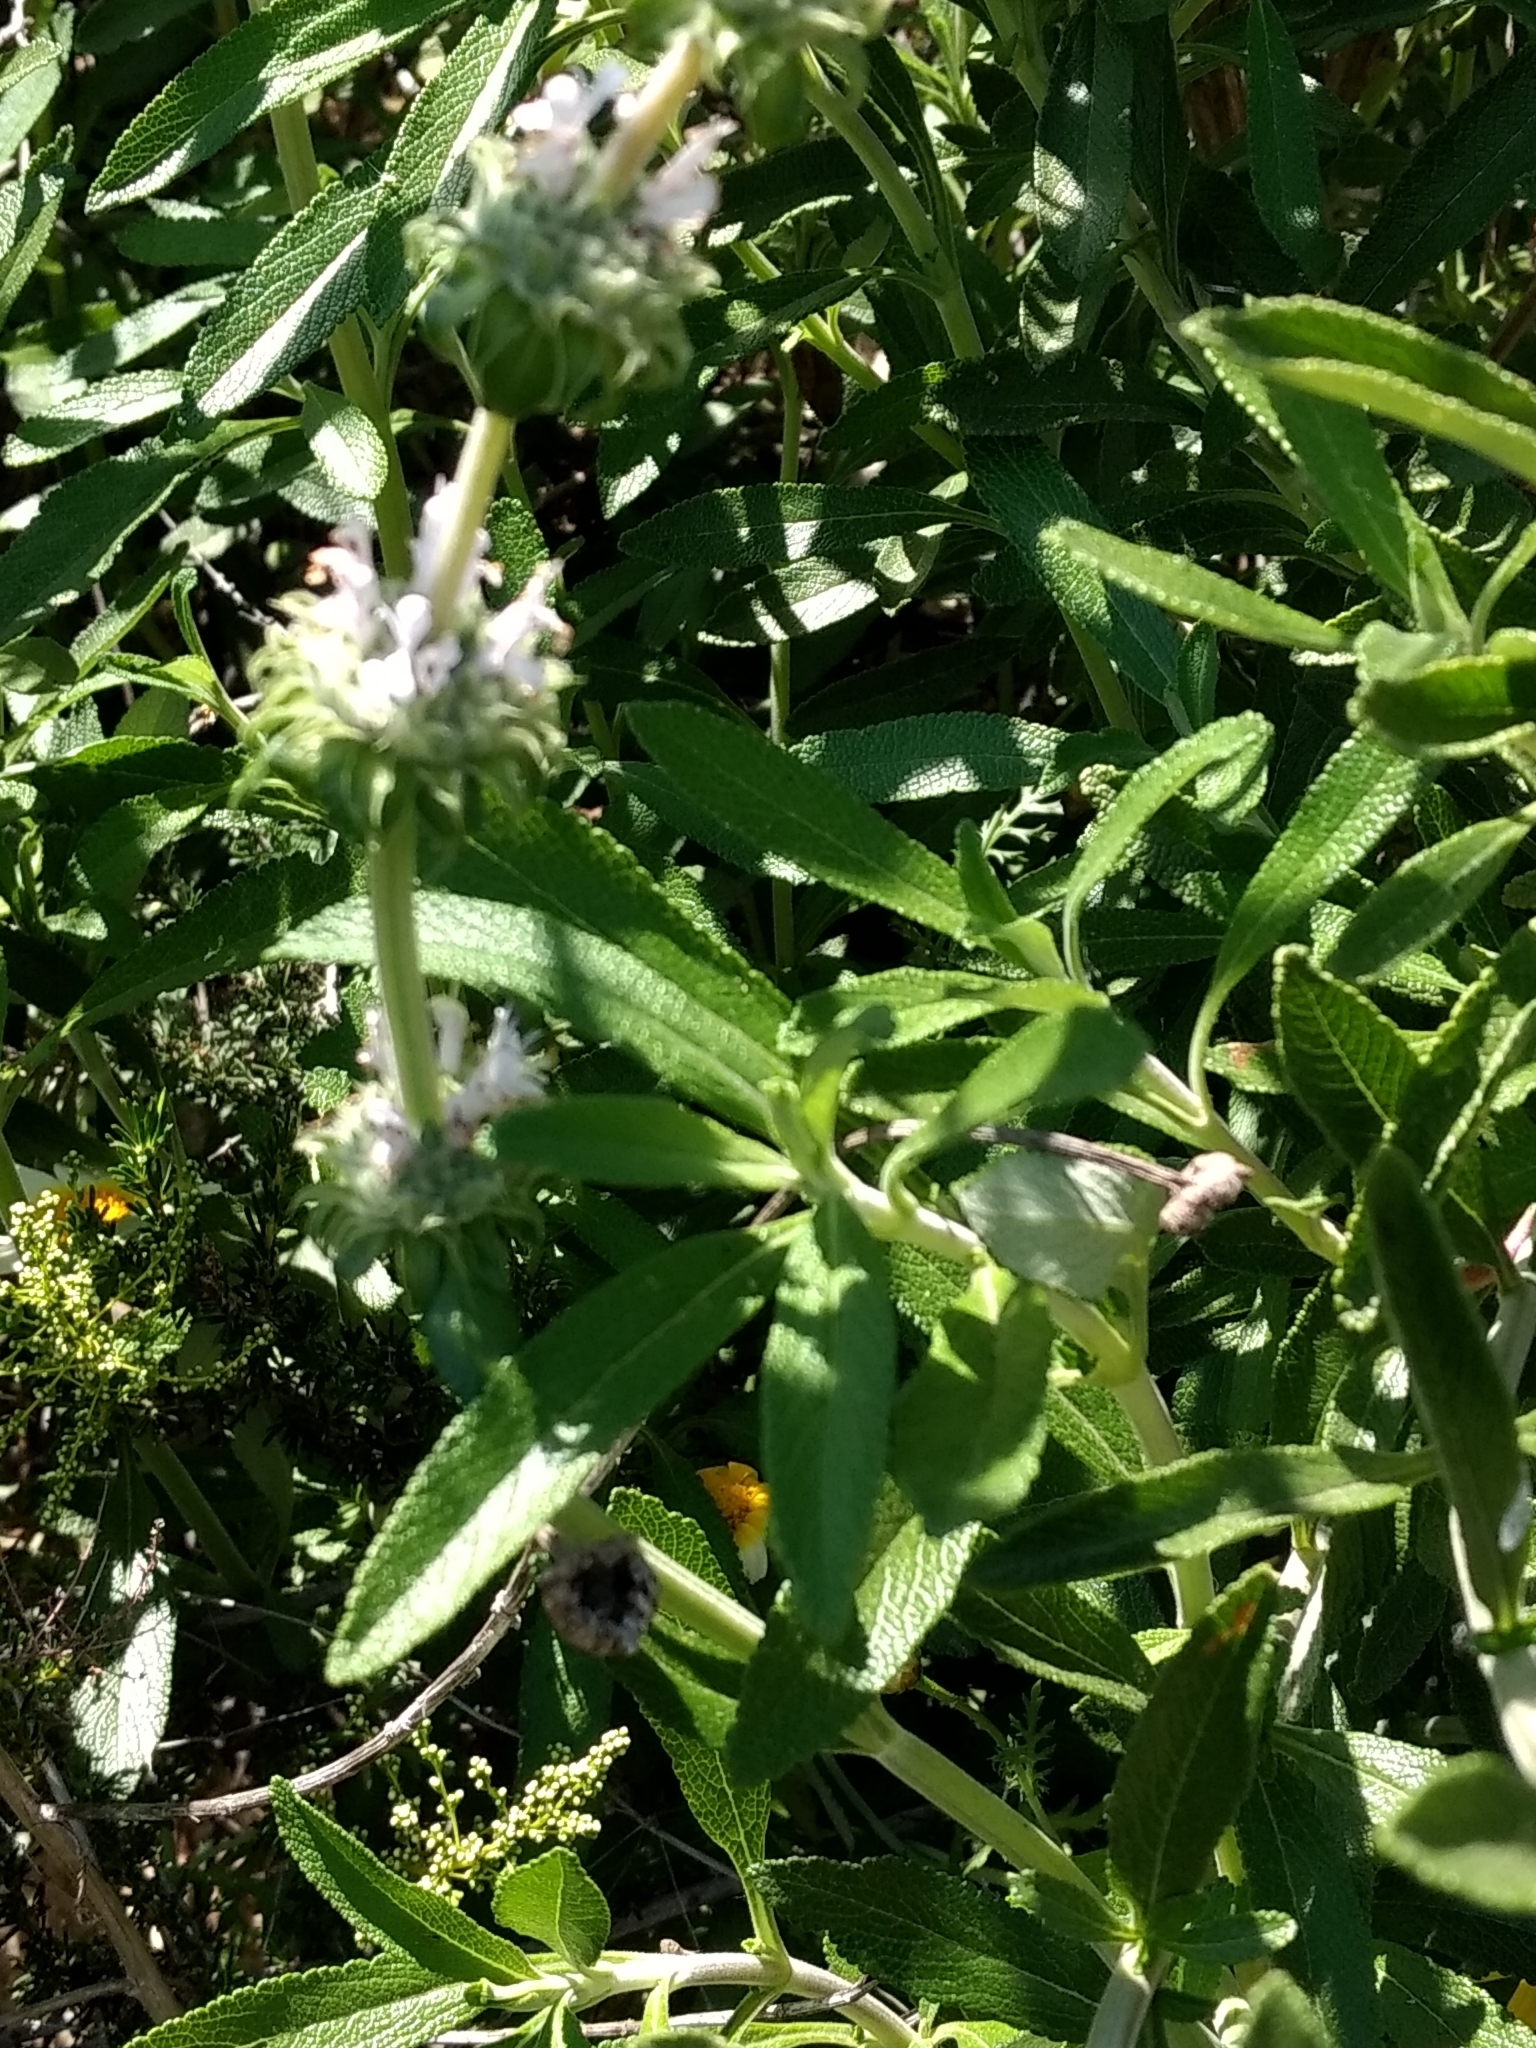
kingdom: Plantae
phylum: Tracheophyta
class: Magnoliopsida
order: Lamiales
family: Lamiaceae
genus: Salvia
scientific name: Salvia mellifera
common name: Black sage
